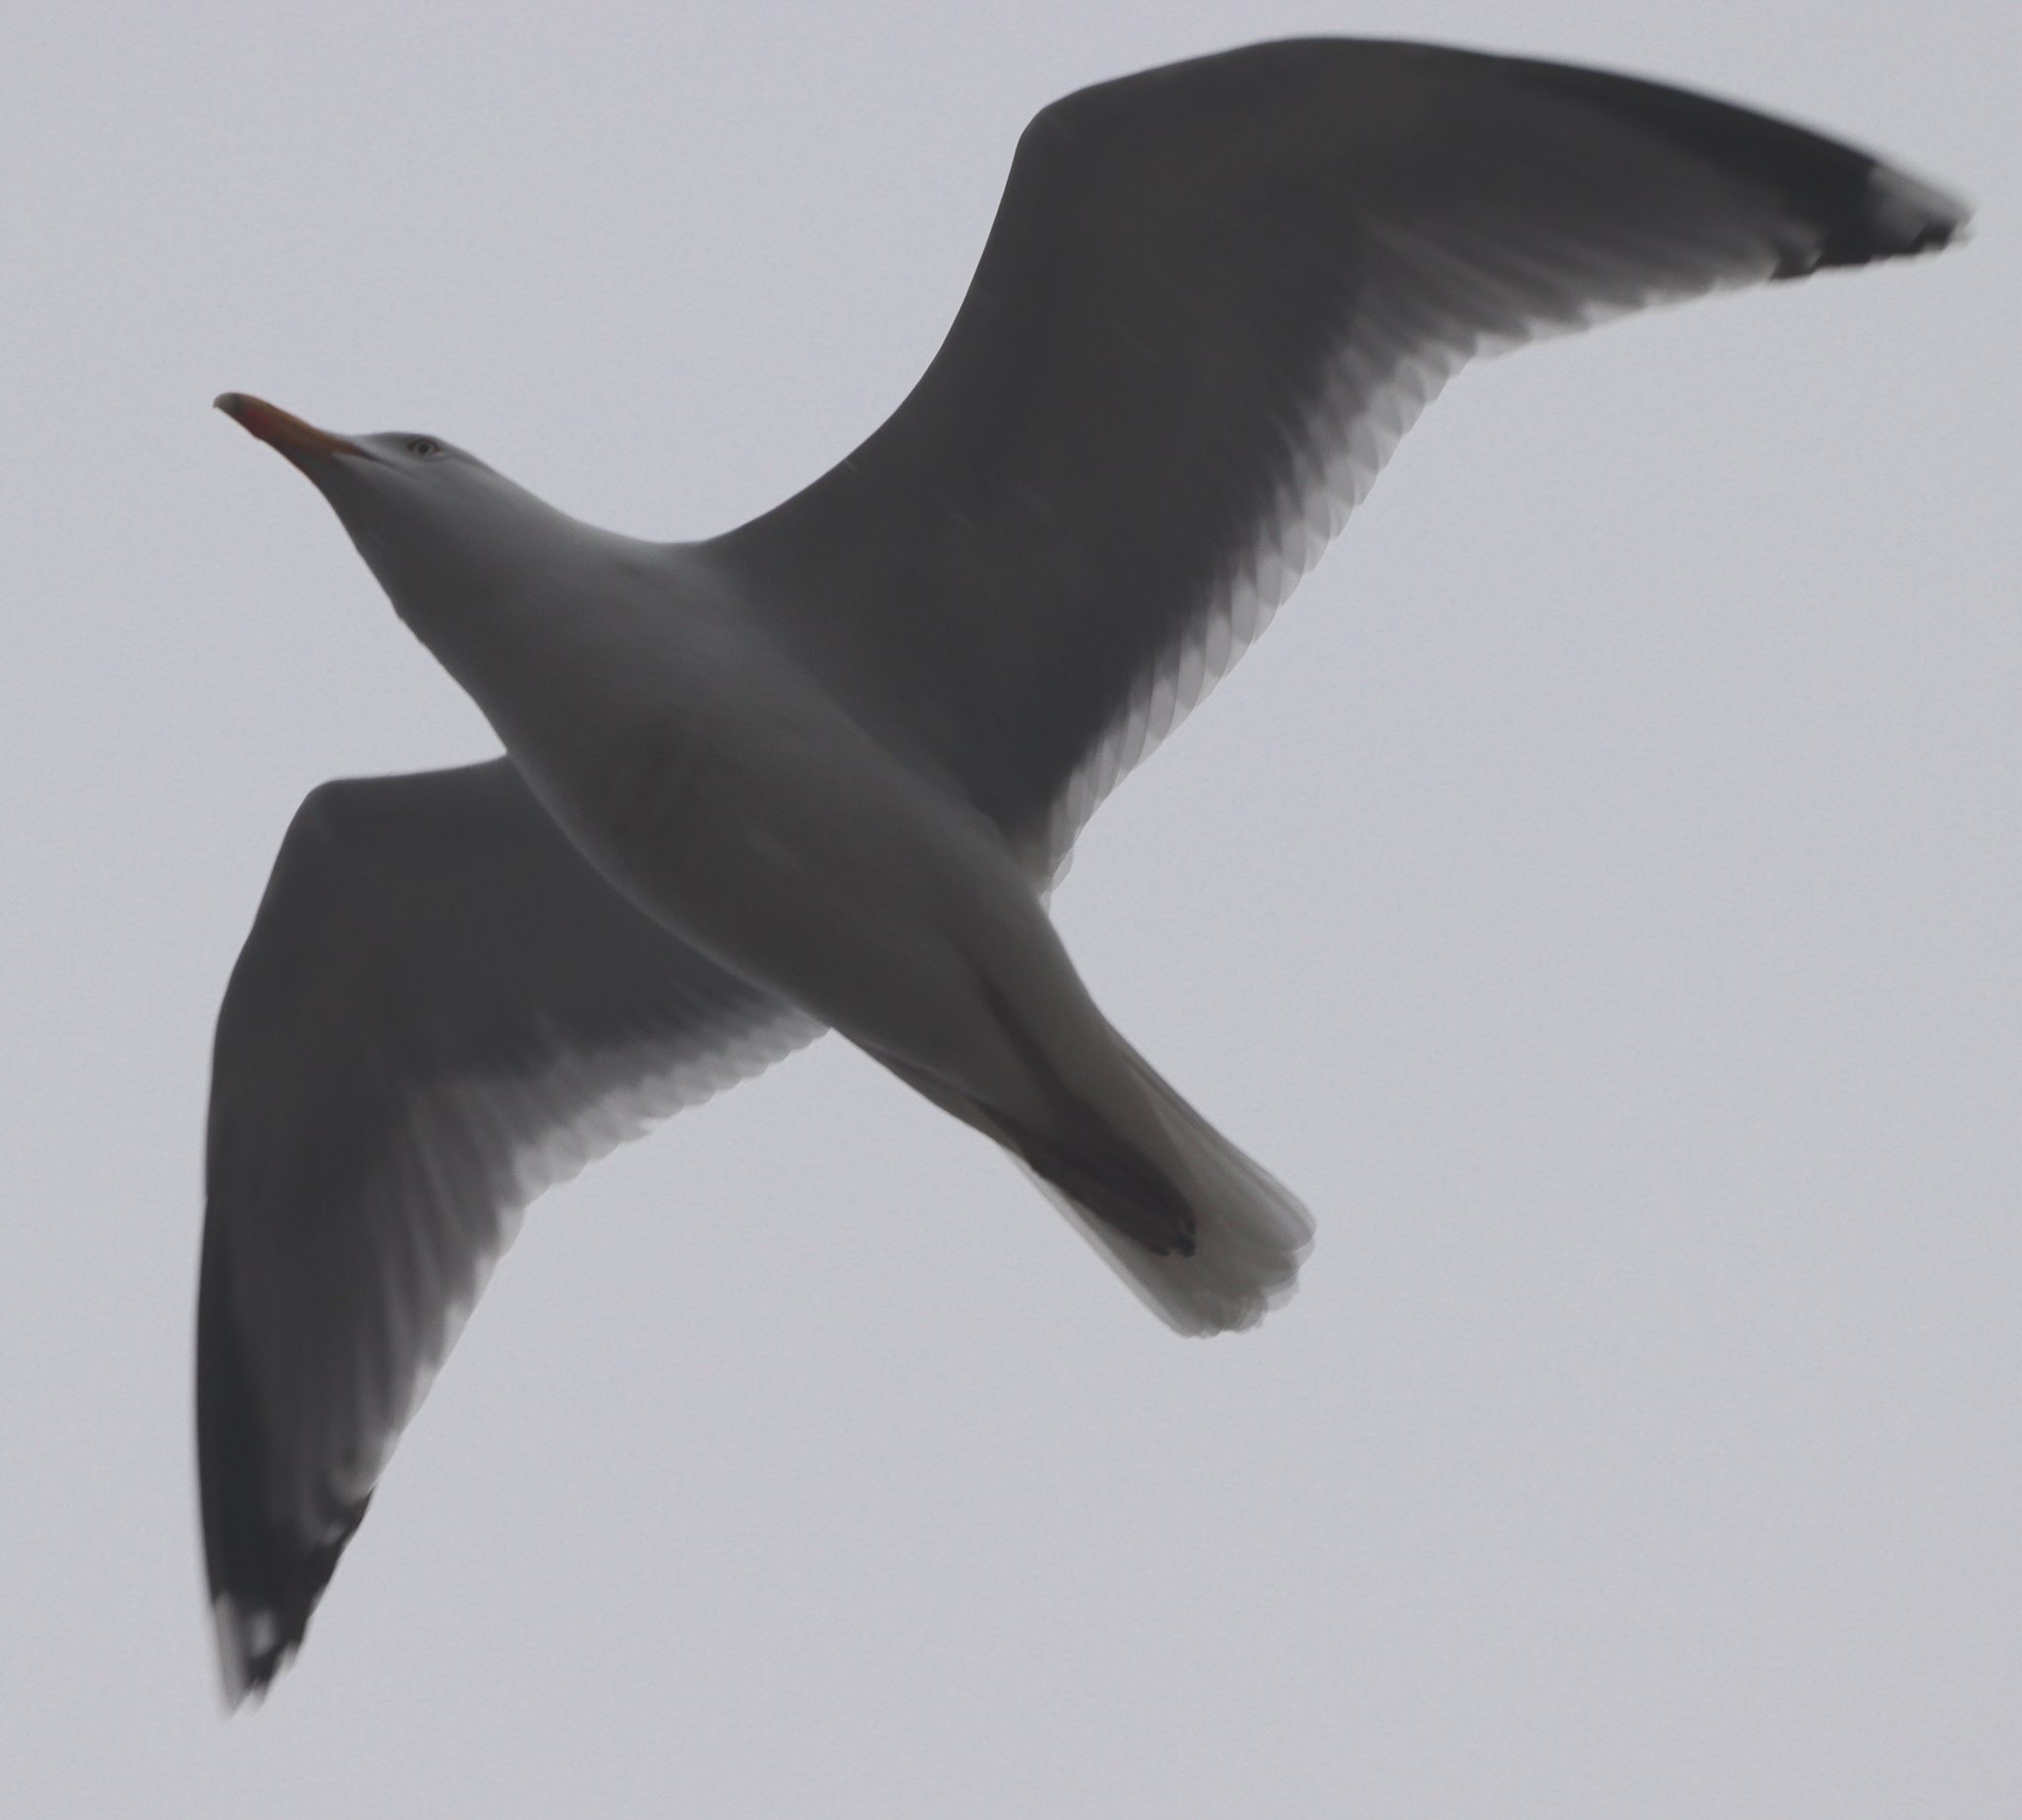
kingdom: Animalia
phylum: Chordata
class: Aves
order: Charadriiformes
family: Laridae
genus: Larus
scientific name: Larus argentatus
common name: Herring gull
